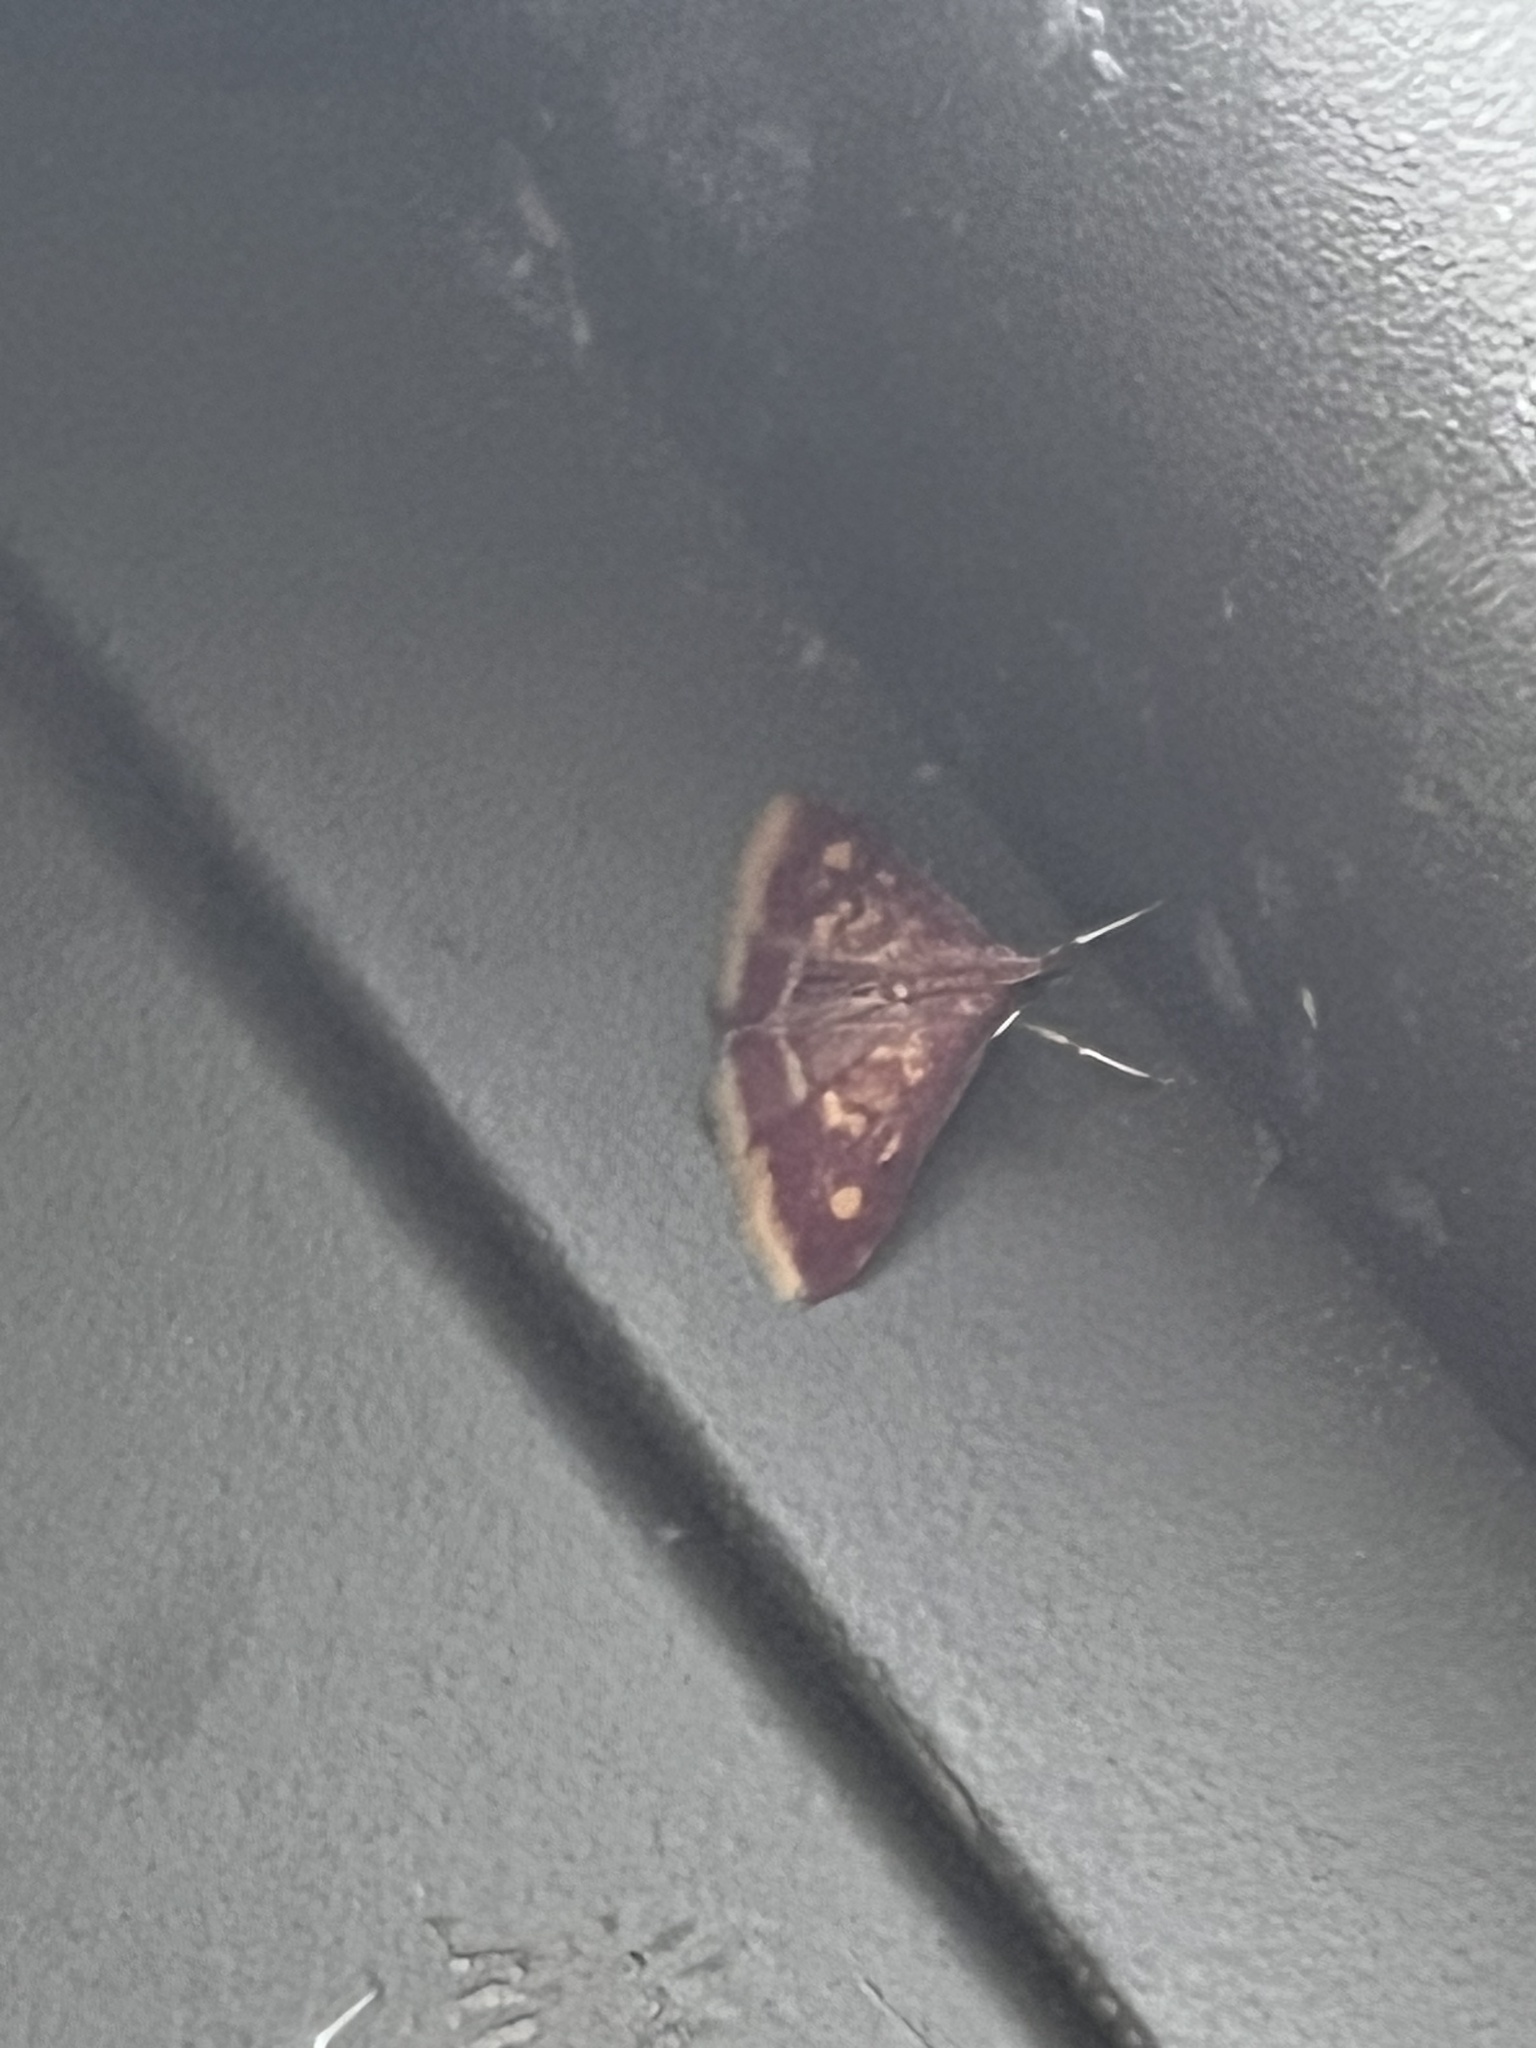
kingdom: Animalia
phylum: Arthropoda
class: Insecta
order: Lepidoptera
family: Crambidae
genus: Pyrausta
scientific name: Pyrausta acrionalis
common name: Mint-loving pyrausta moth
